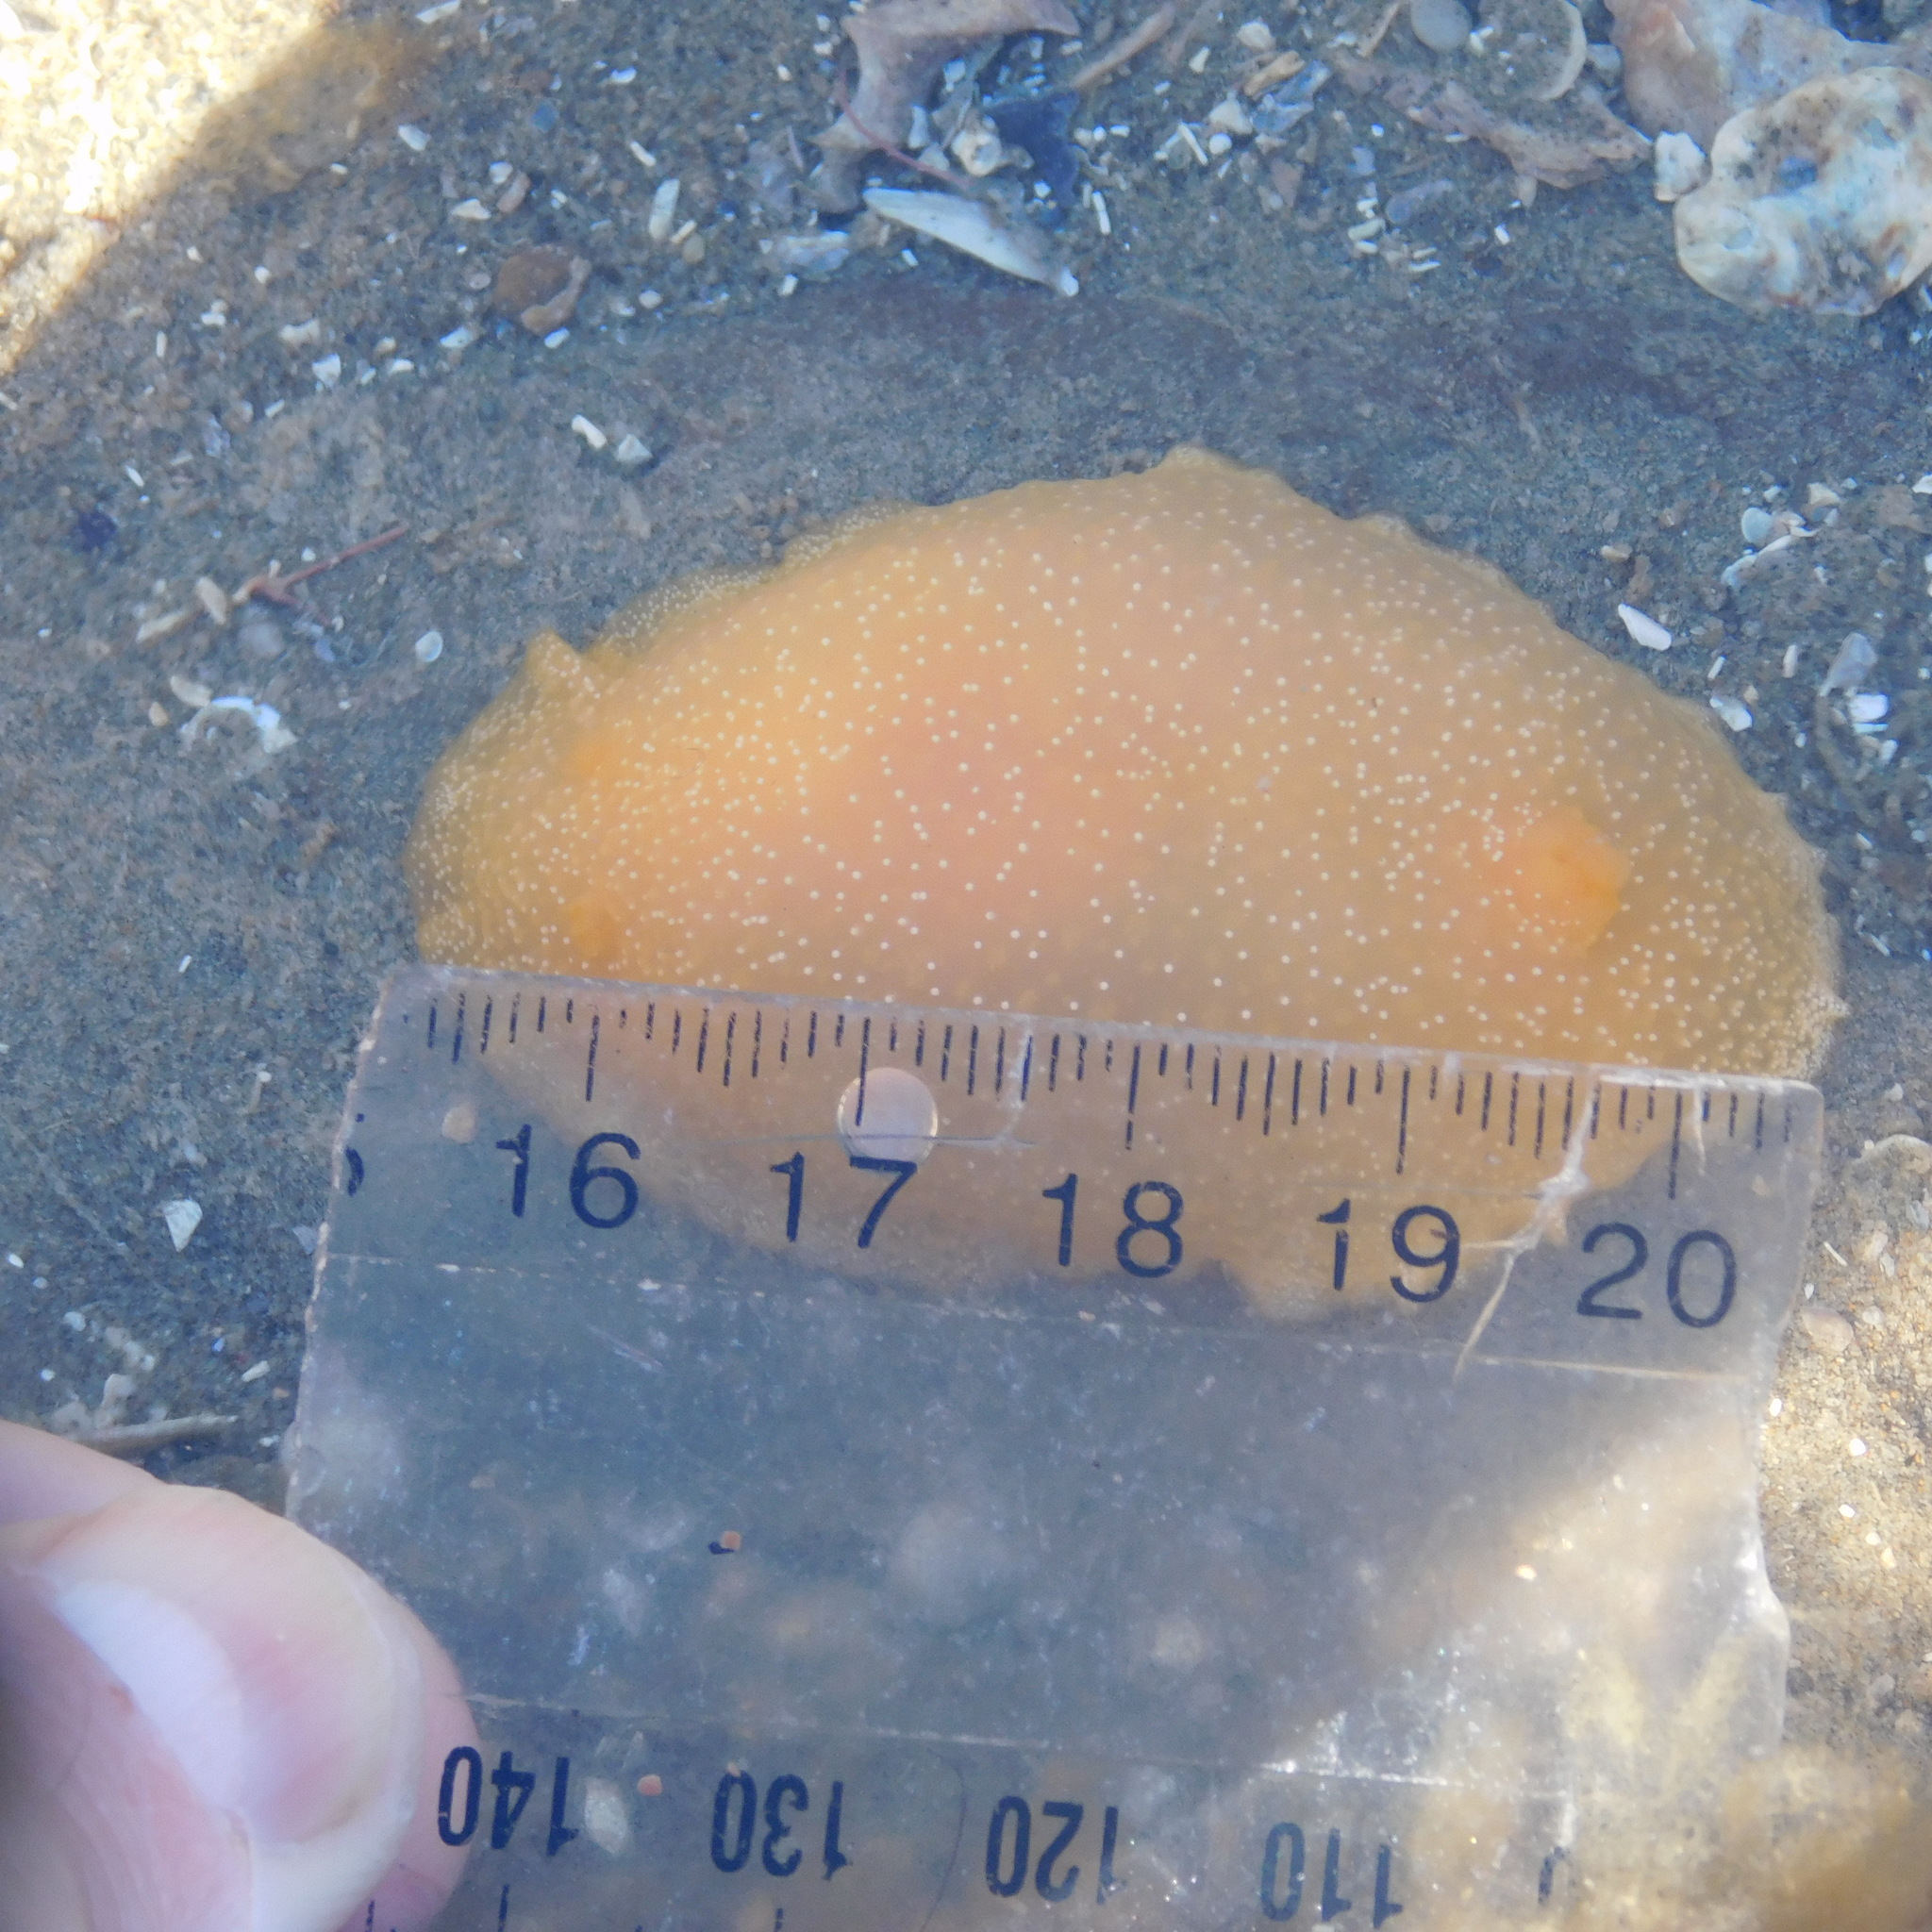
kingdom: Animalia
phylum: Mollusca
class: Gastropoda
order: Nudibranchia
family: Dendrodorididae
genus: Dendrodoris
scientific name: Dendrodoris citrina
